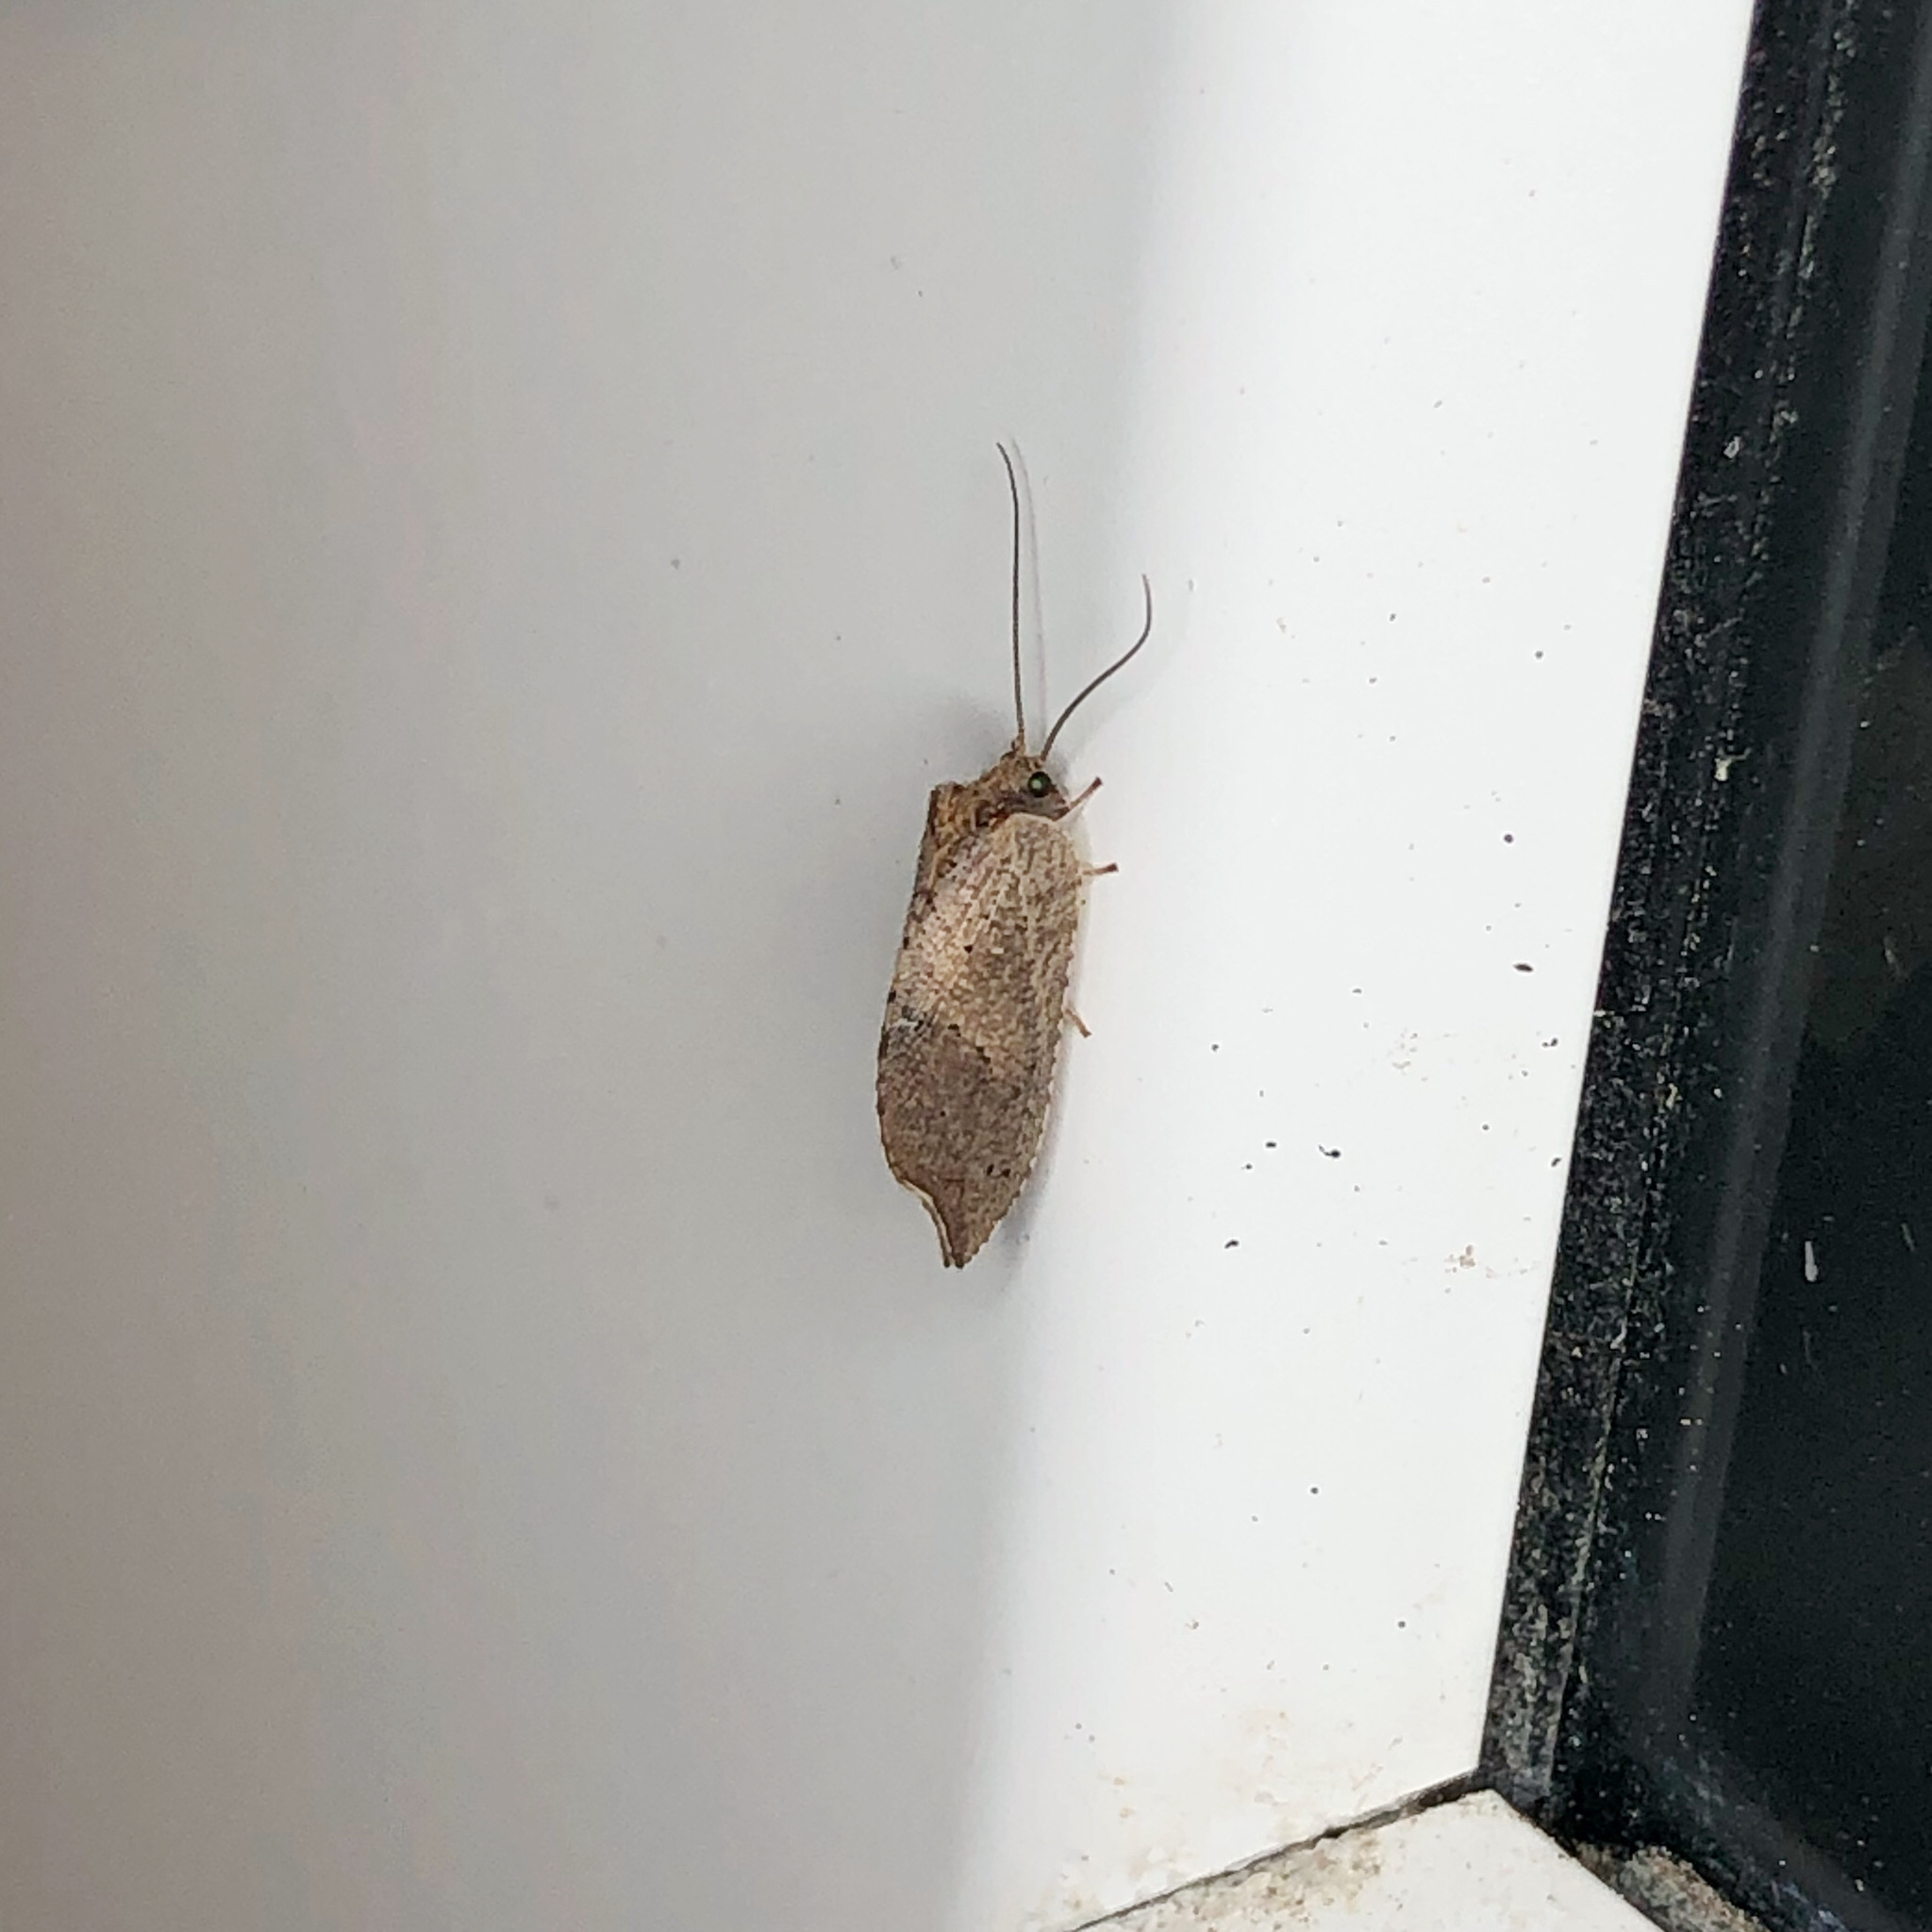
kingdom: Animalia
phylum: Arthropoda
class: Insecta
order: Neuroptera
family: Hemerobiidae
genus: Drepanacra
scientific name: Drepanacra binocula
